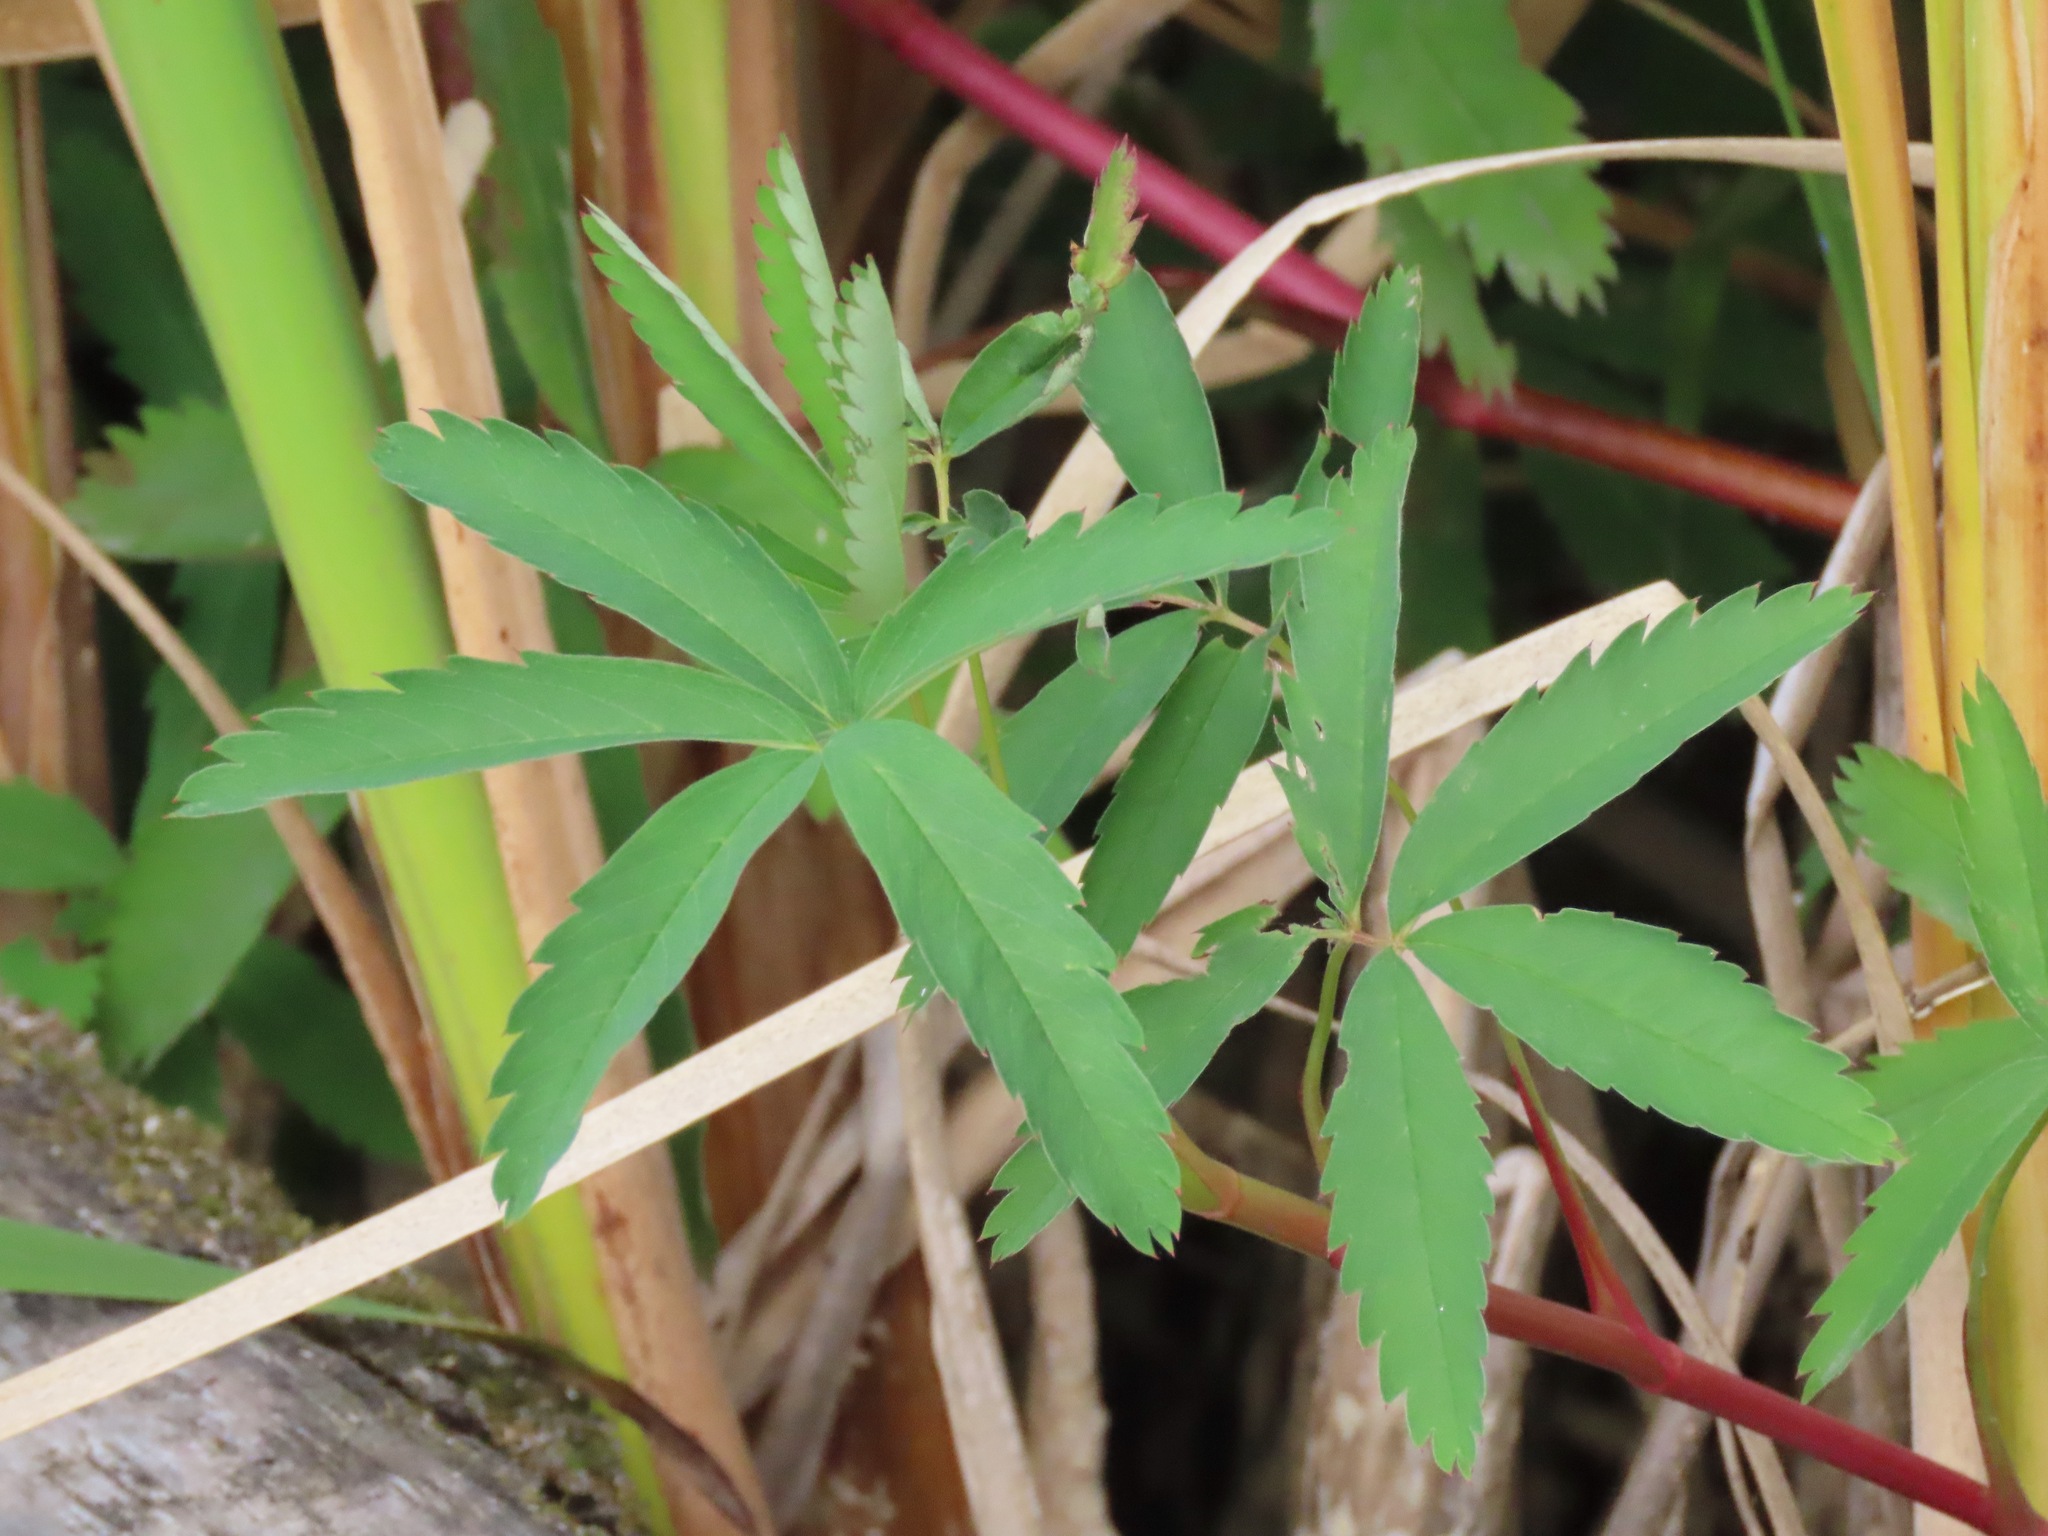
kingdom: Plantae
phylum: Tracheophyta
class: Magnoliopsida
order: Rosales
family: Rosaceae
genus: Comarum
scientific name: Comarum palustre
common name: Marsh cinquefoil
